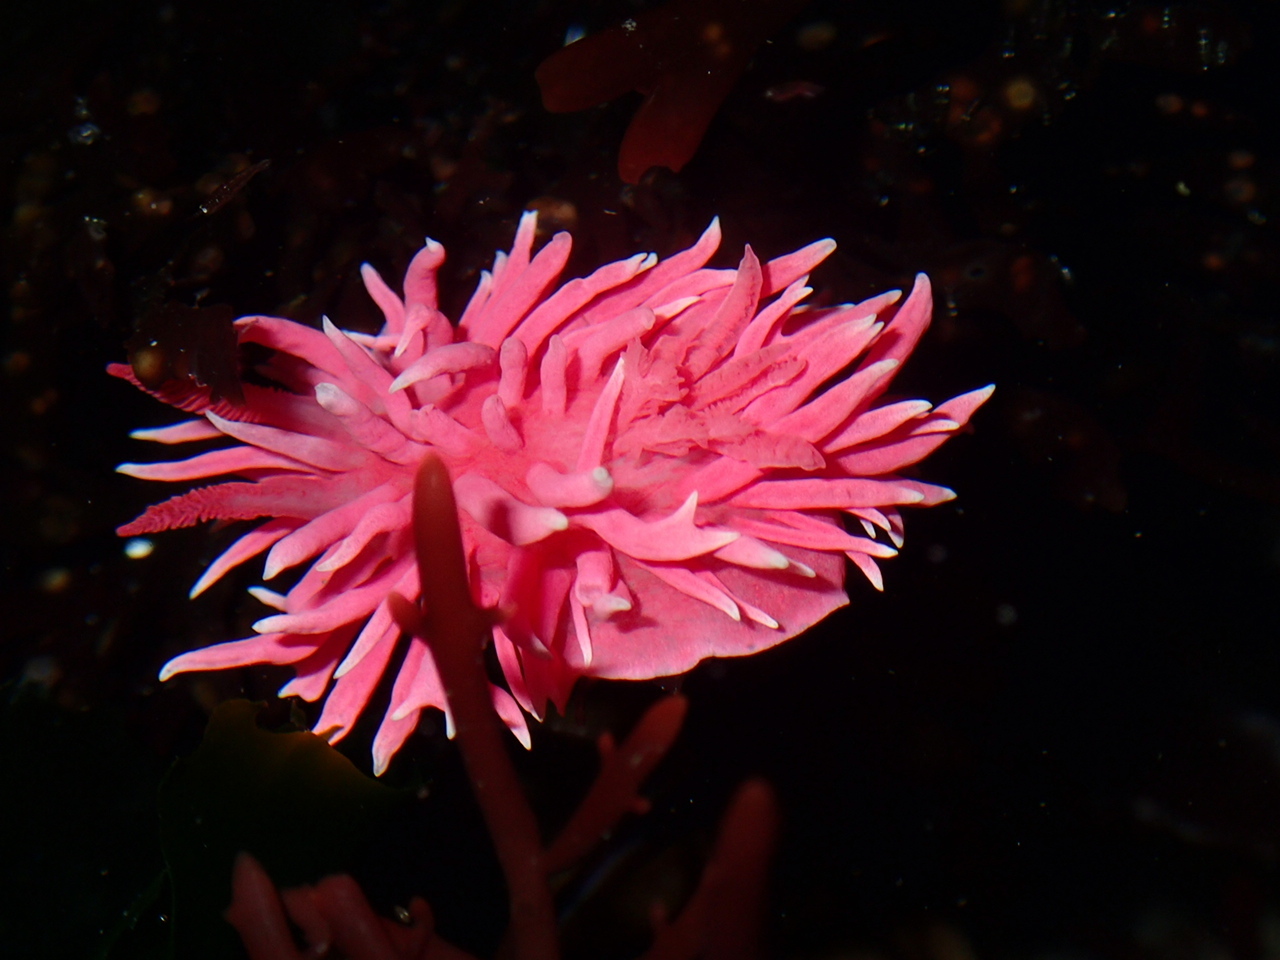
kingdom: Animalia
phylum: Mollusca
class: Gastropoda
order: Nudibranchia
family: Goniodorididae
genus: Okenia
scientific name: Okenia
